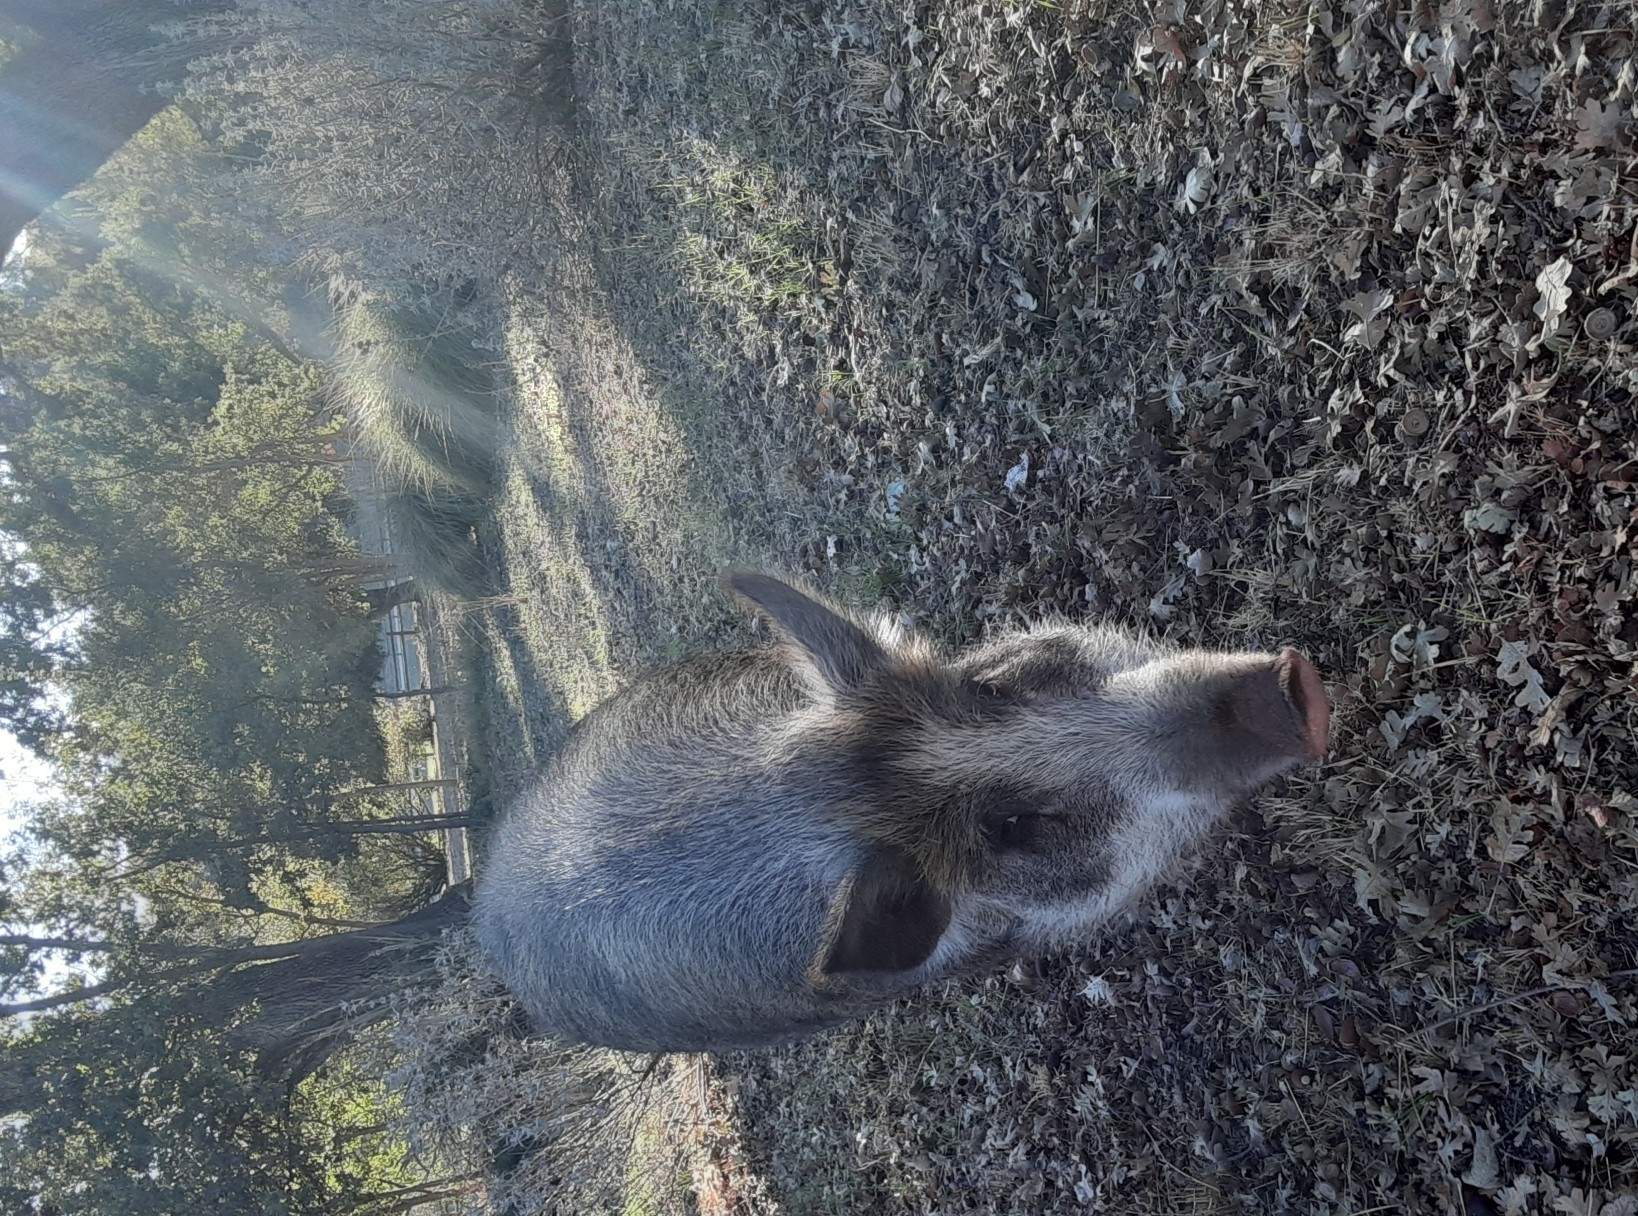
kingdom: Animalia
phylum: Chordata
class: Mammalia
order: Artiodactyla
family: Suidae
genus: Sus
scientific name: Sus scrofa
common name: Wild boar
